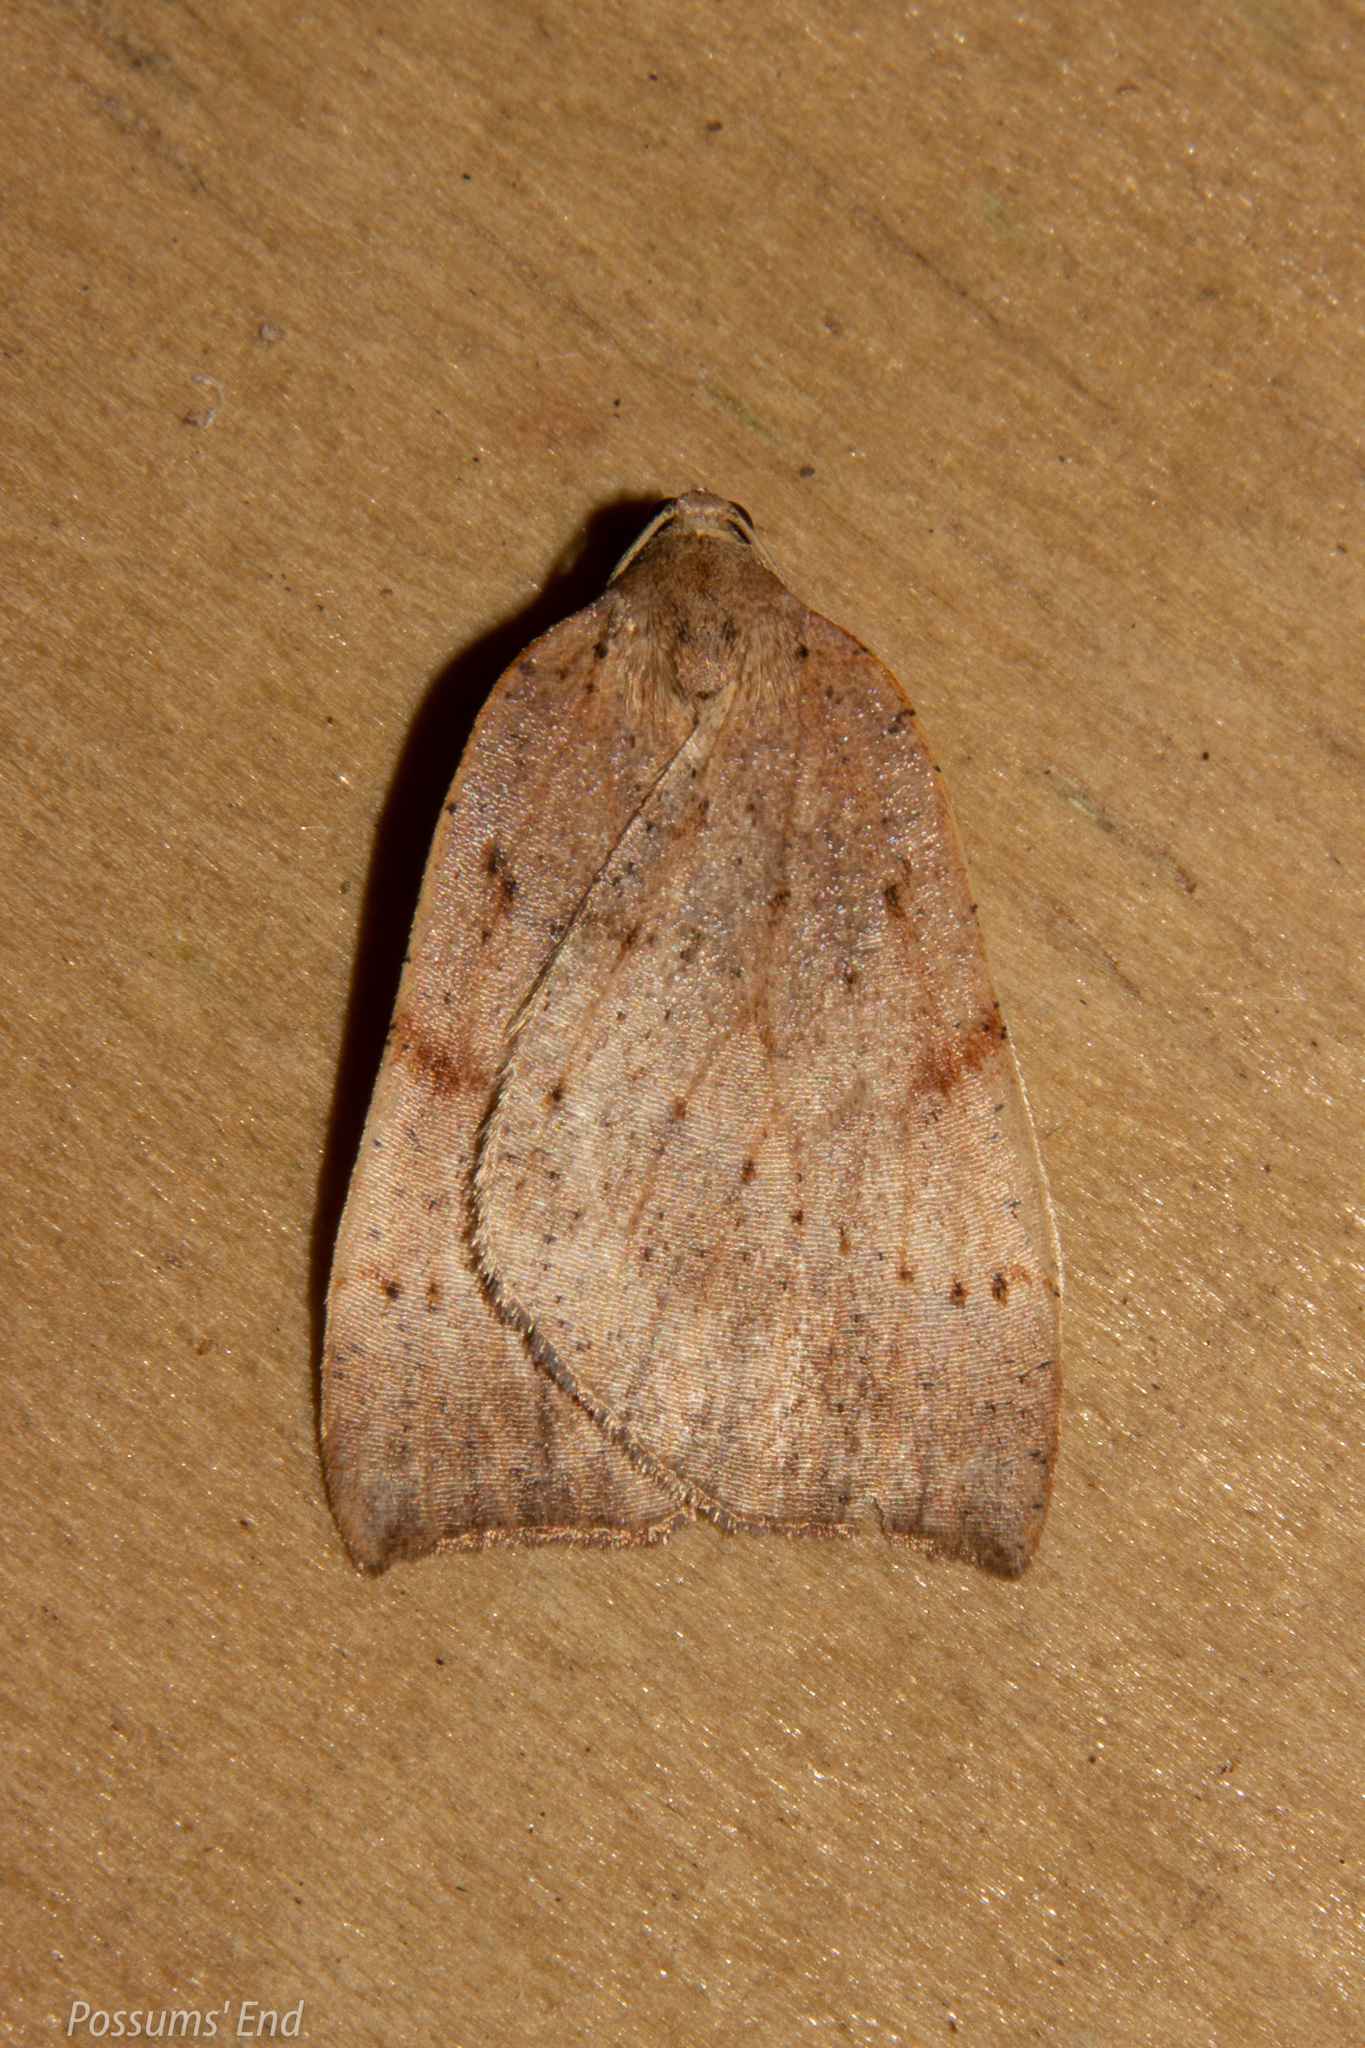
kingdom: Animalia
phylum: Arthropoda
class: Insecta
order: Lepidoptera
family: Geometridae
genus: Sestra
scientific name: Sestra humeraria
